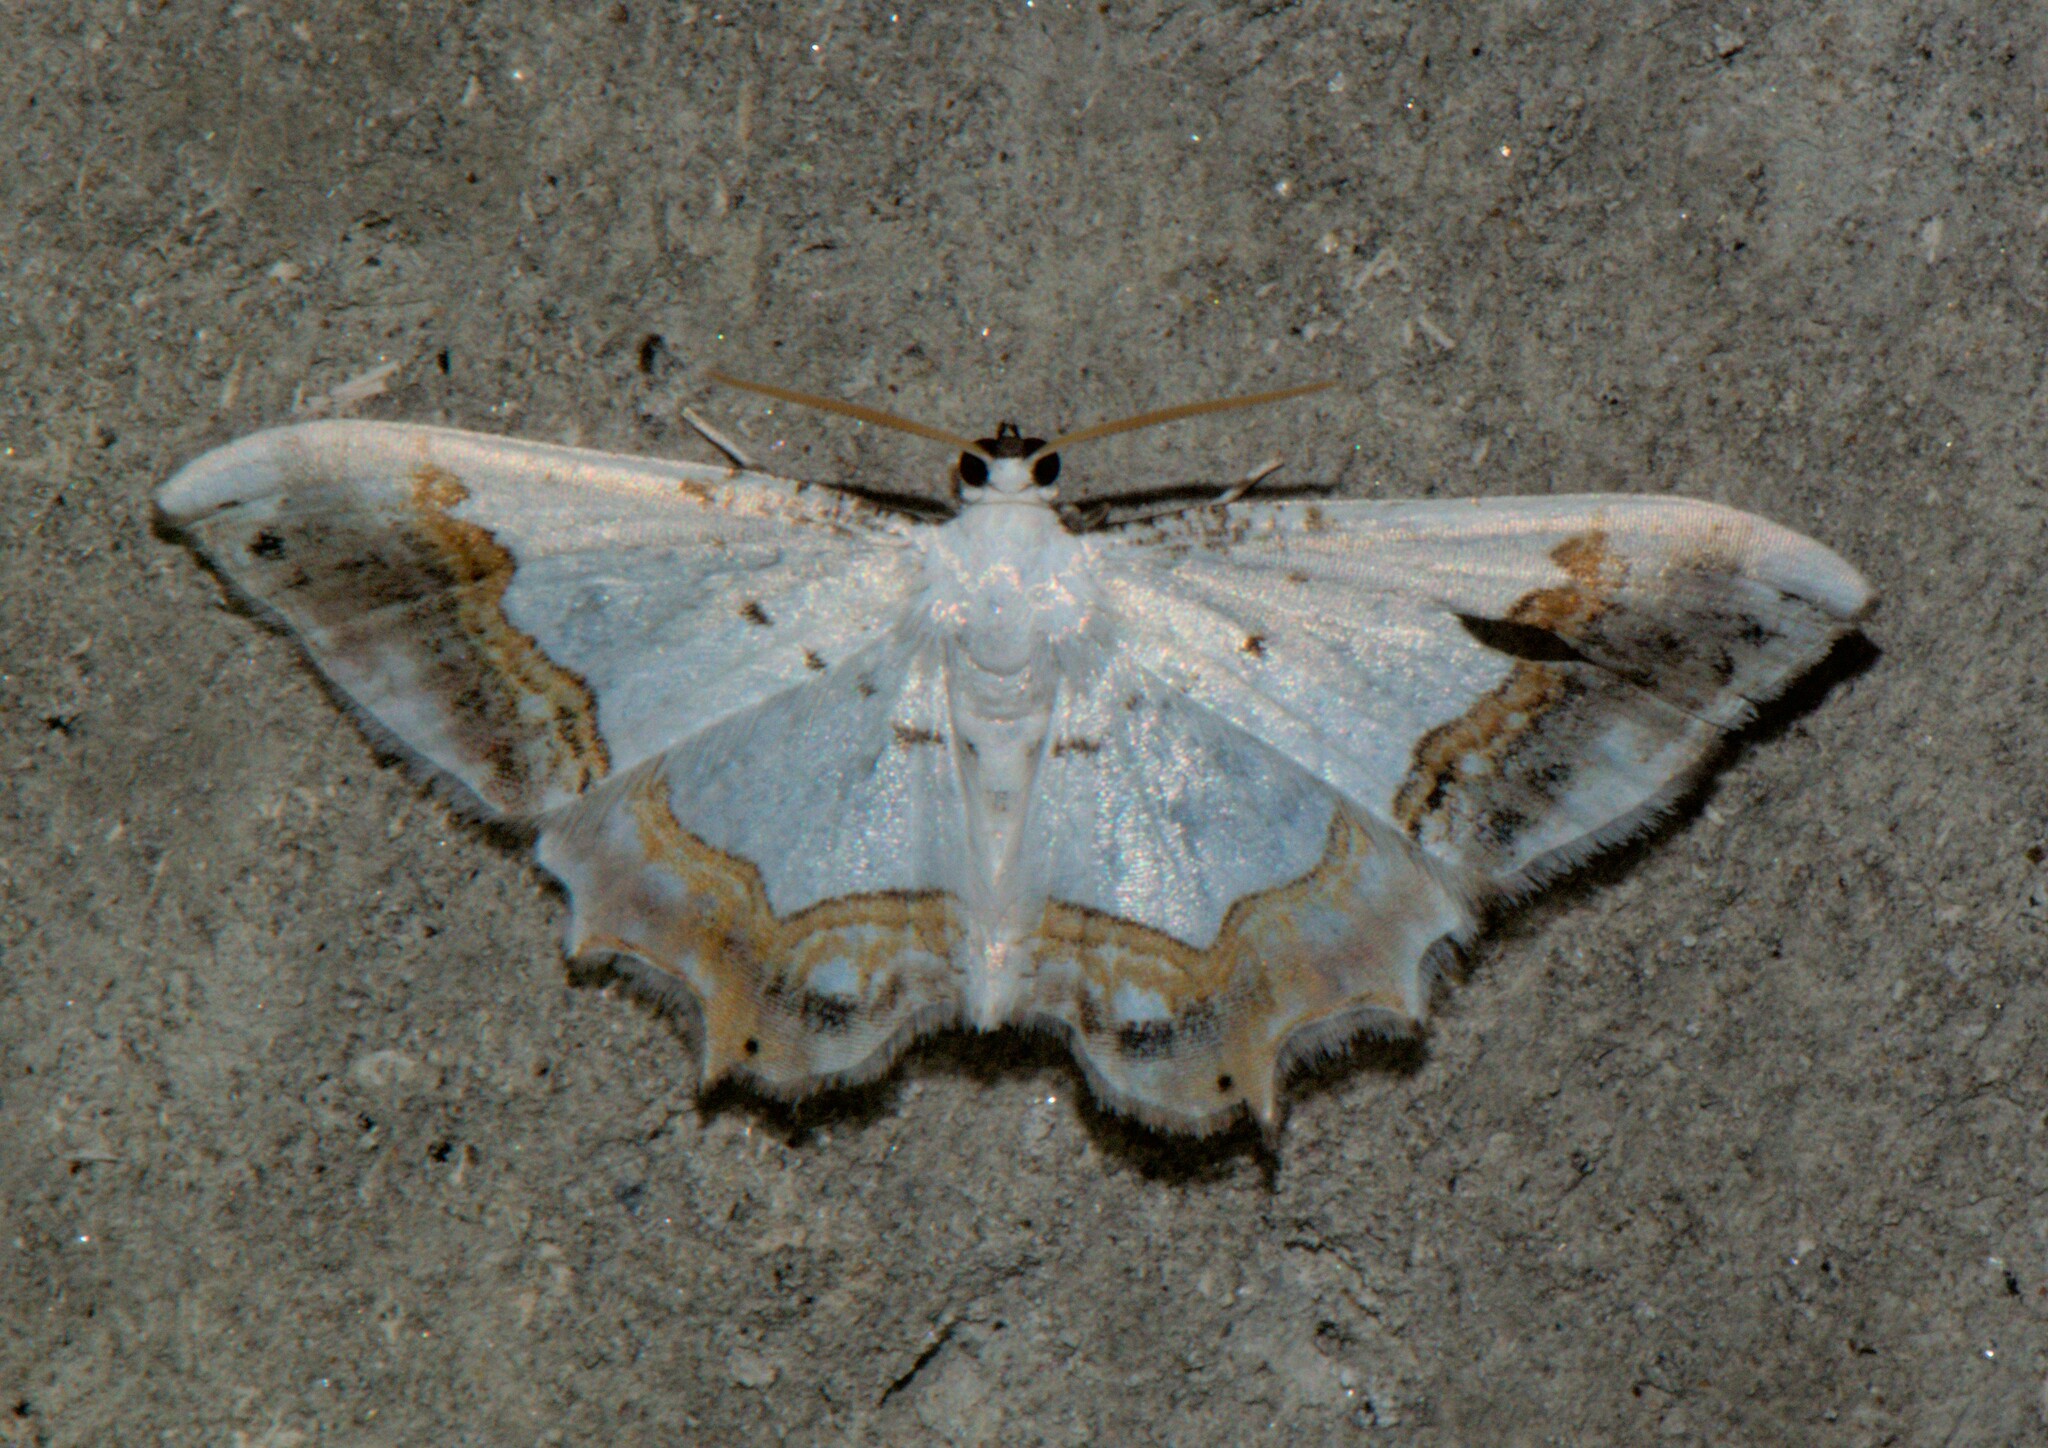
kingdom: Animalia
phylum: Arthropoda
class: Insecta
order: Lepidoptera
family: Uraniidae
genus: Epiplema
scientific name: Epiplema
